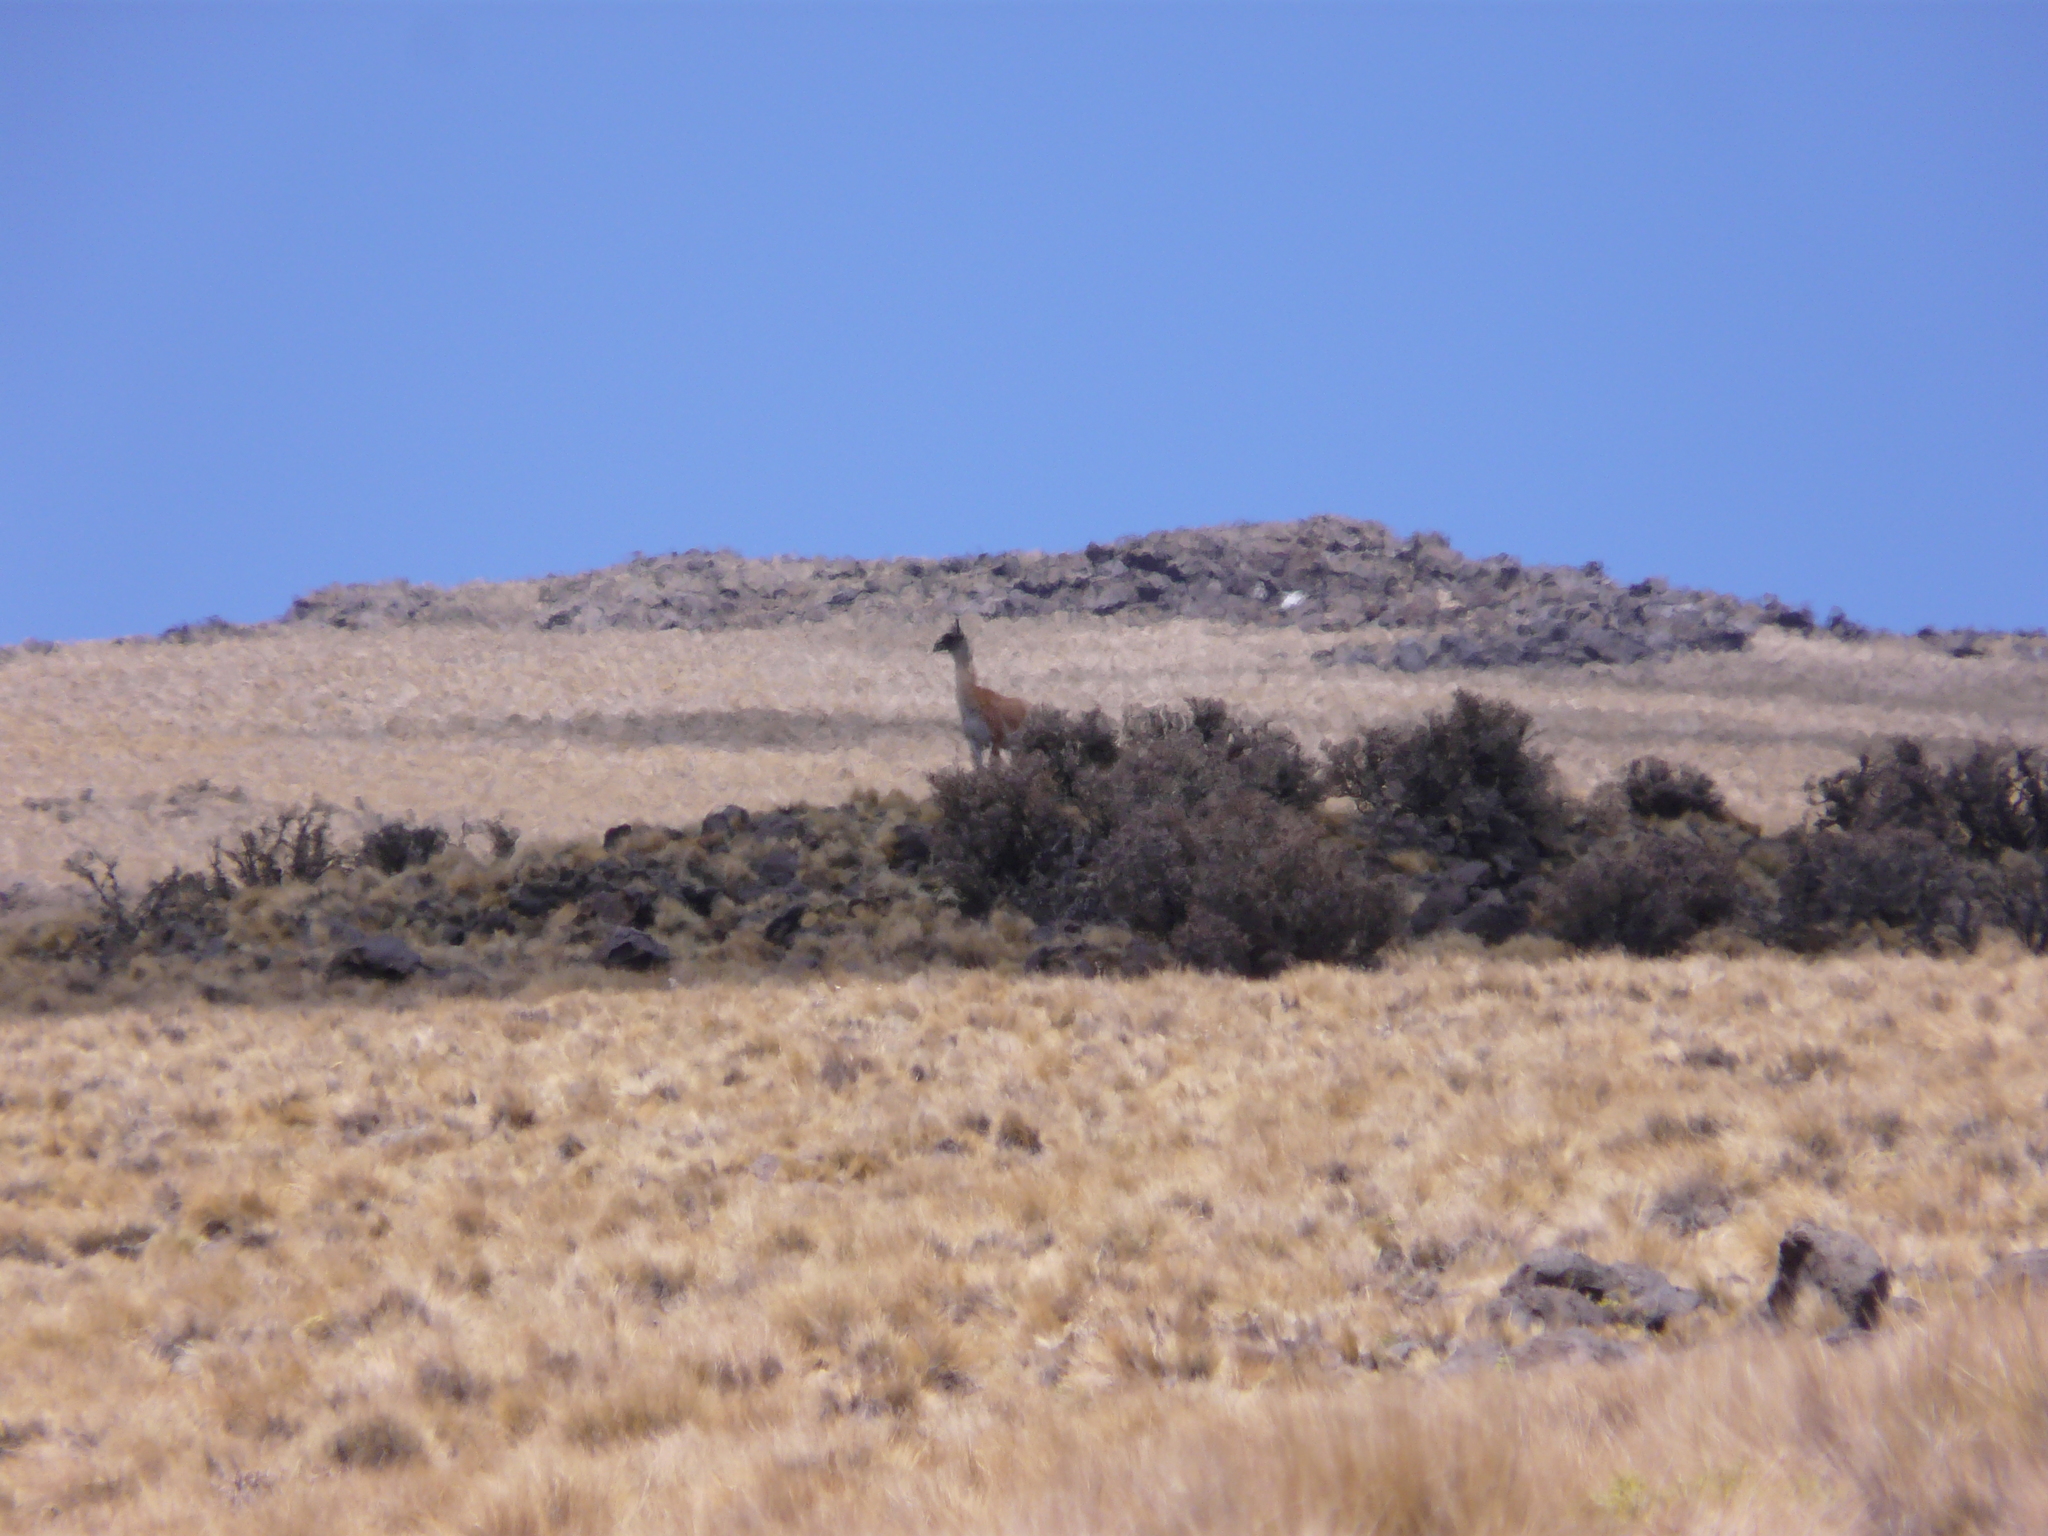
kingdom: Animalia
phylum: Chordata
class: Mammalia
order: Artiodactyla
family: Camelidae
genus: Lama
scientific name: Lama glama
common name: Llama
